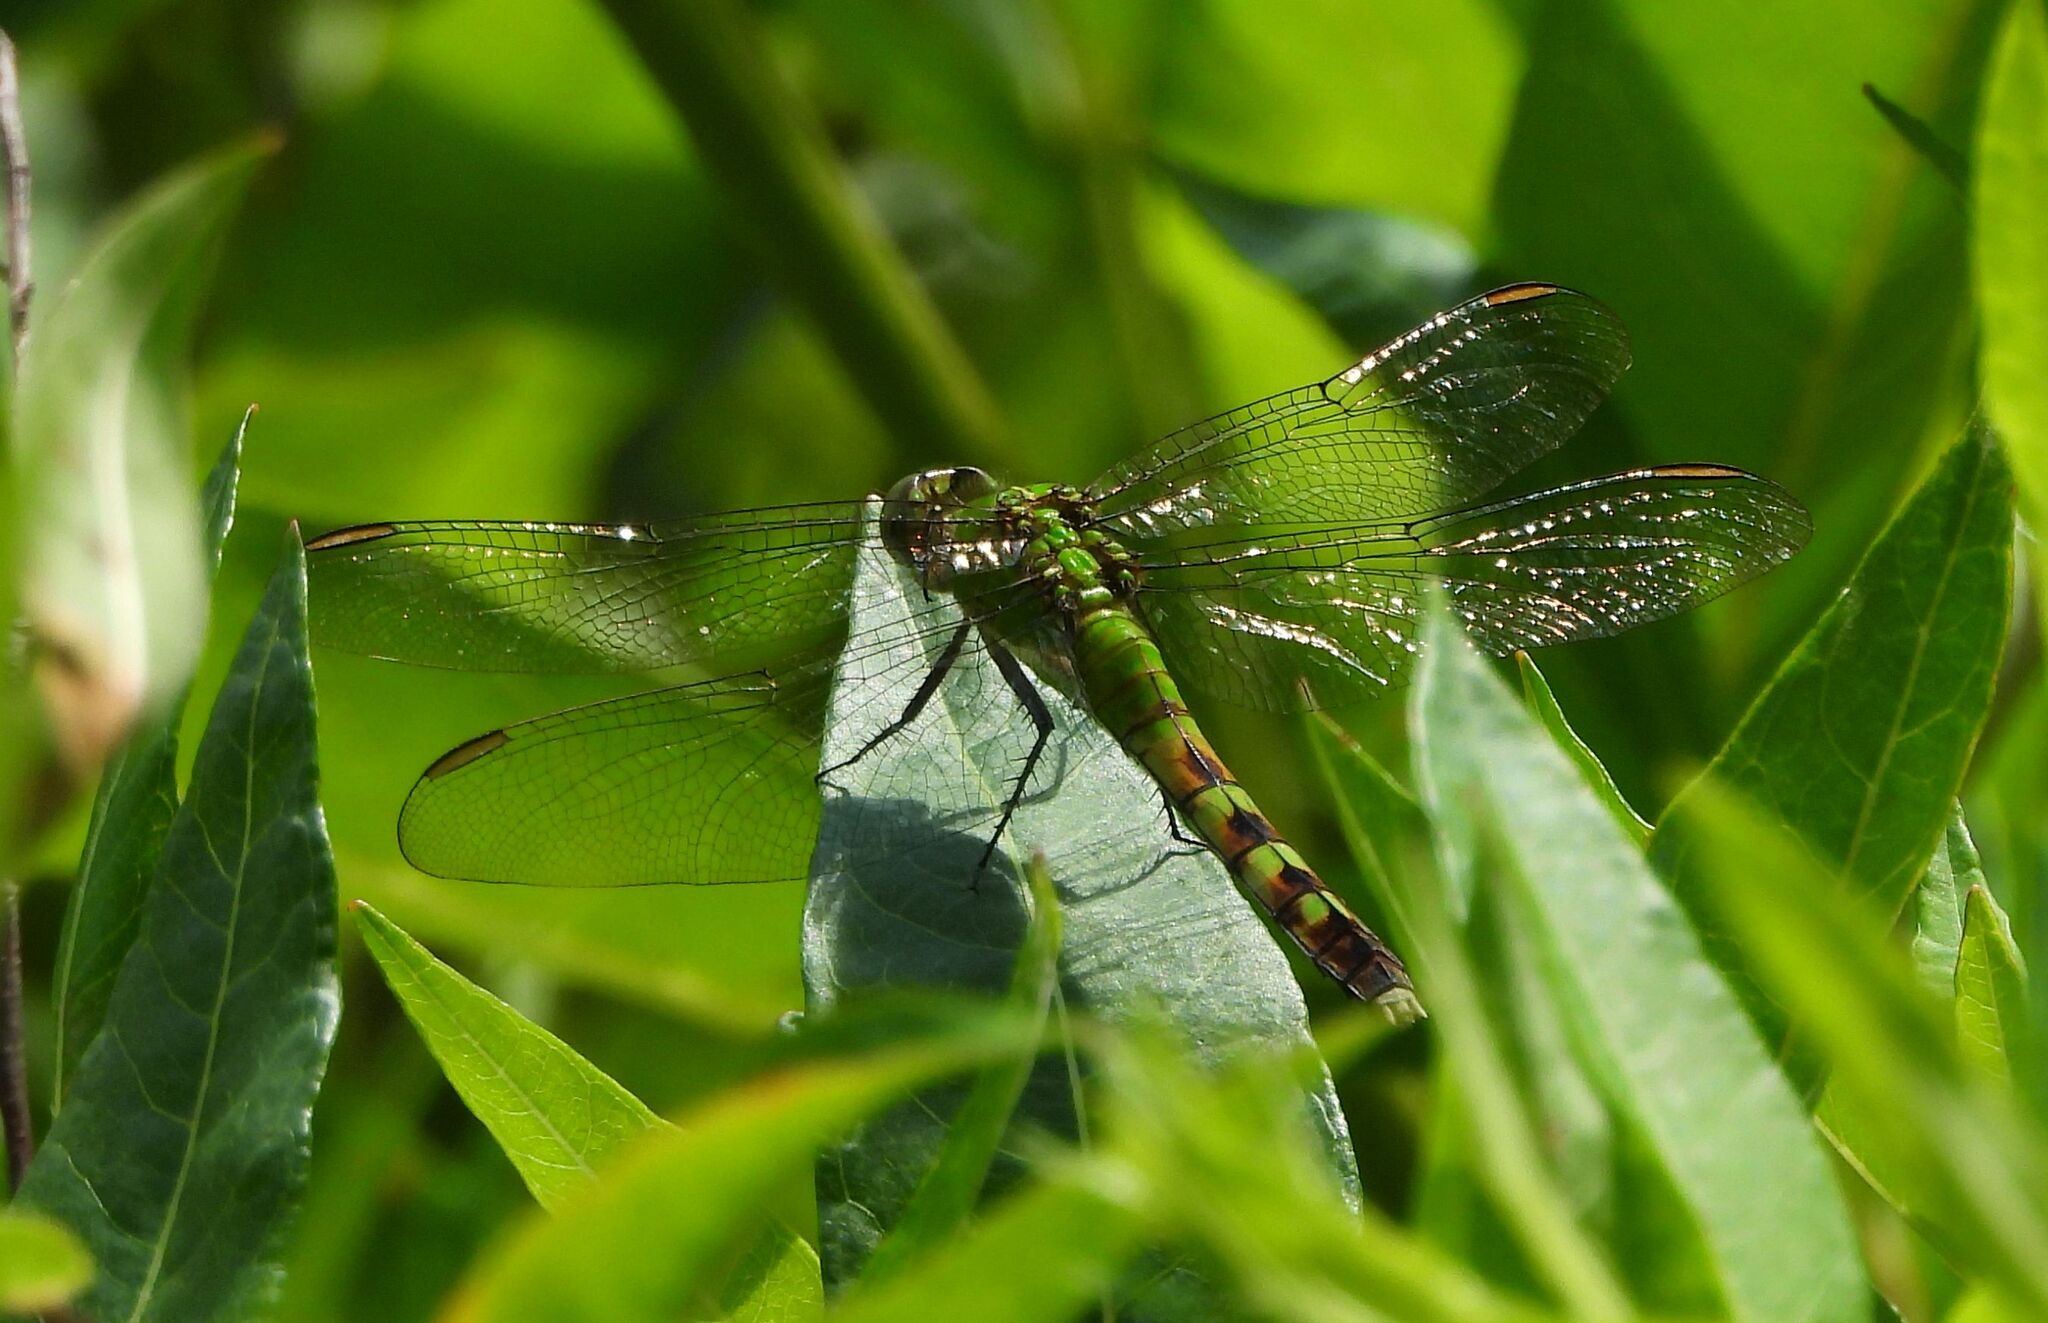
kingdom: Animalia
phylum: Arthropoda
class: Insecta
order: Odonata
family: Libellulidae
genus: Erythemis
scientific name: Erythemis simplicicollis
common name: Eastern pondhawk
